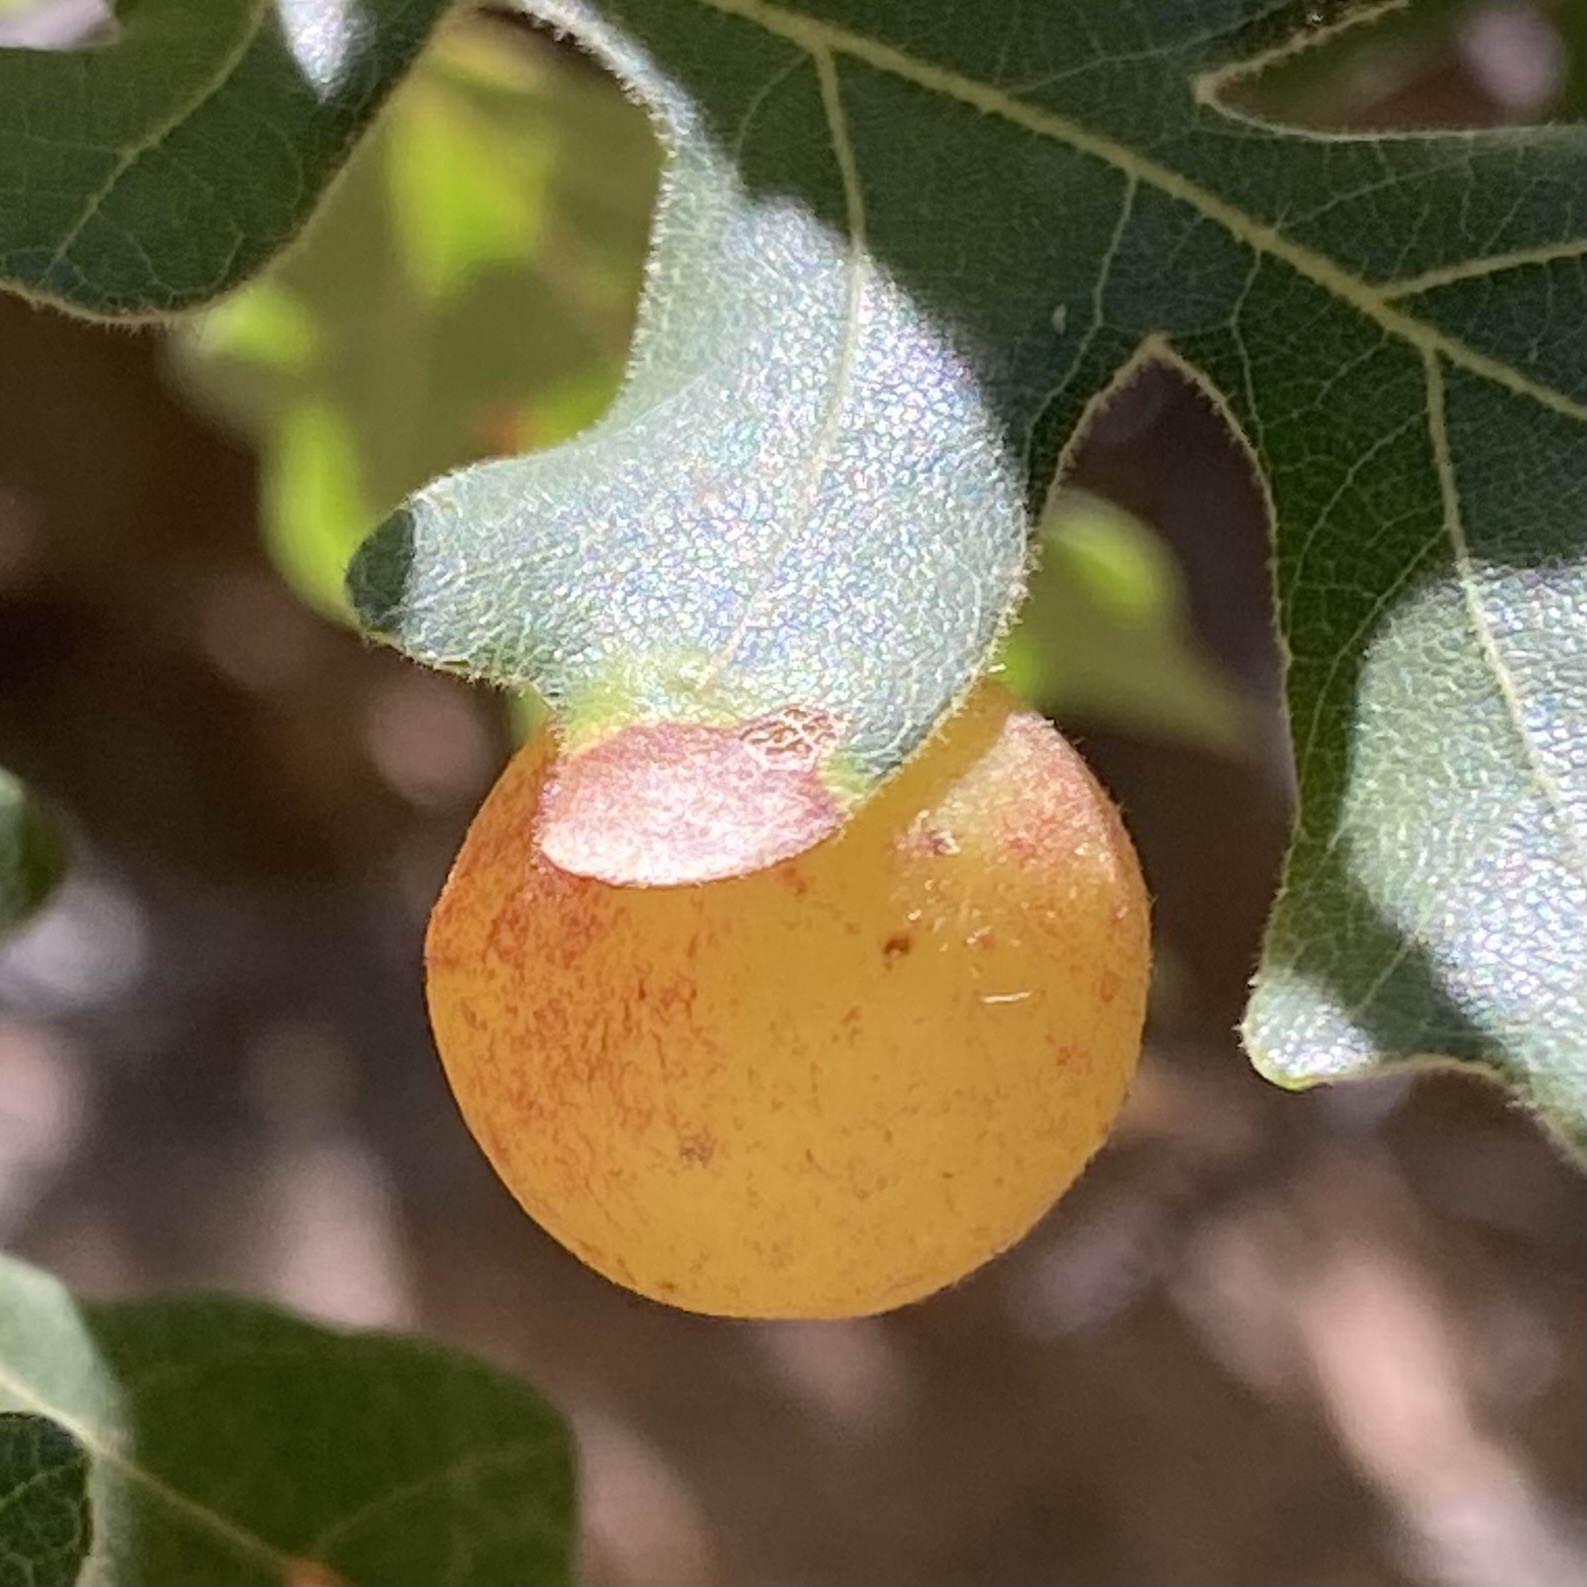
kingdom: Animalia
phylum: Arthropoda
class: Insecta
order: Hymenoptera
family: Cynipidae
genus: Atrusca
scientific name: Atrusca
